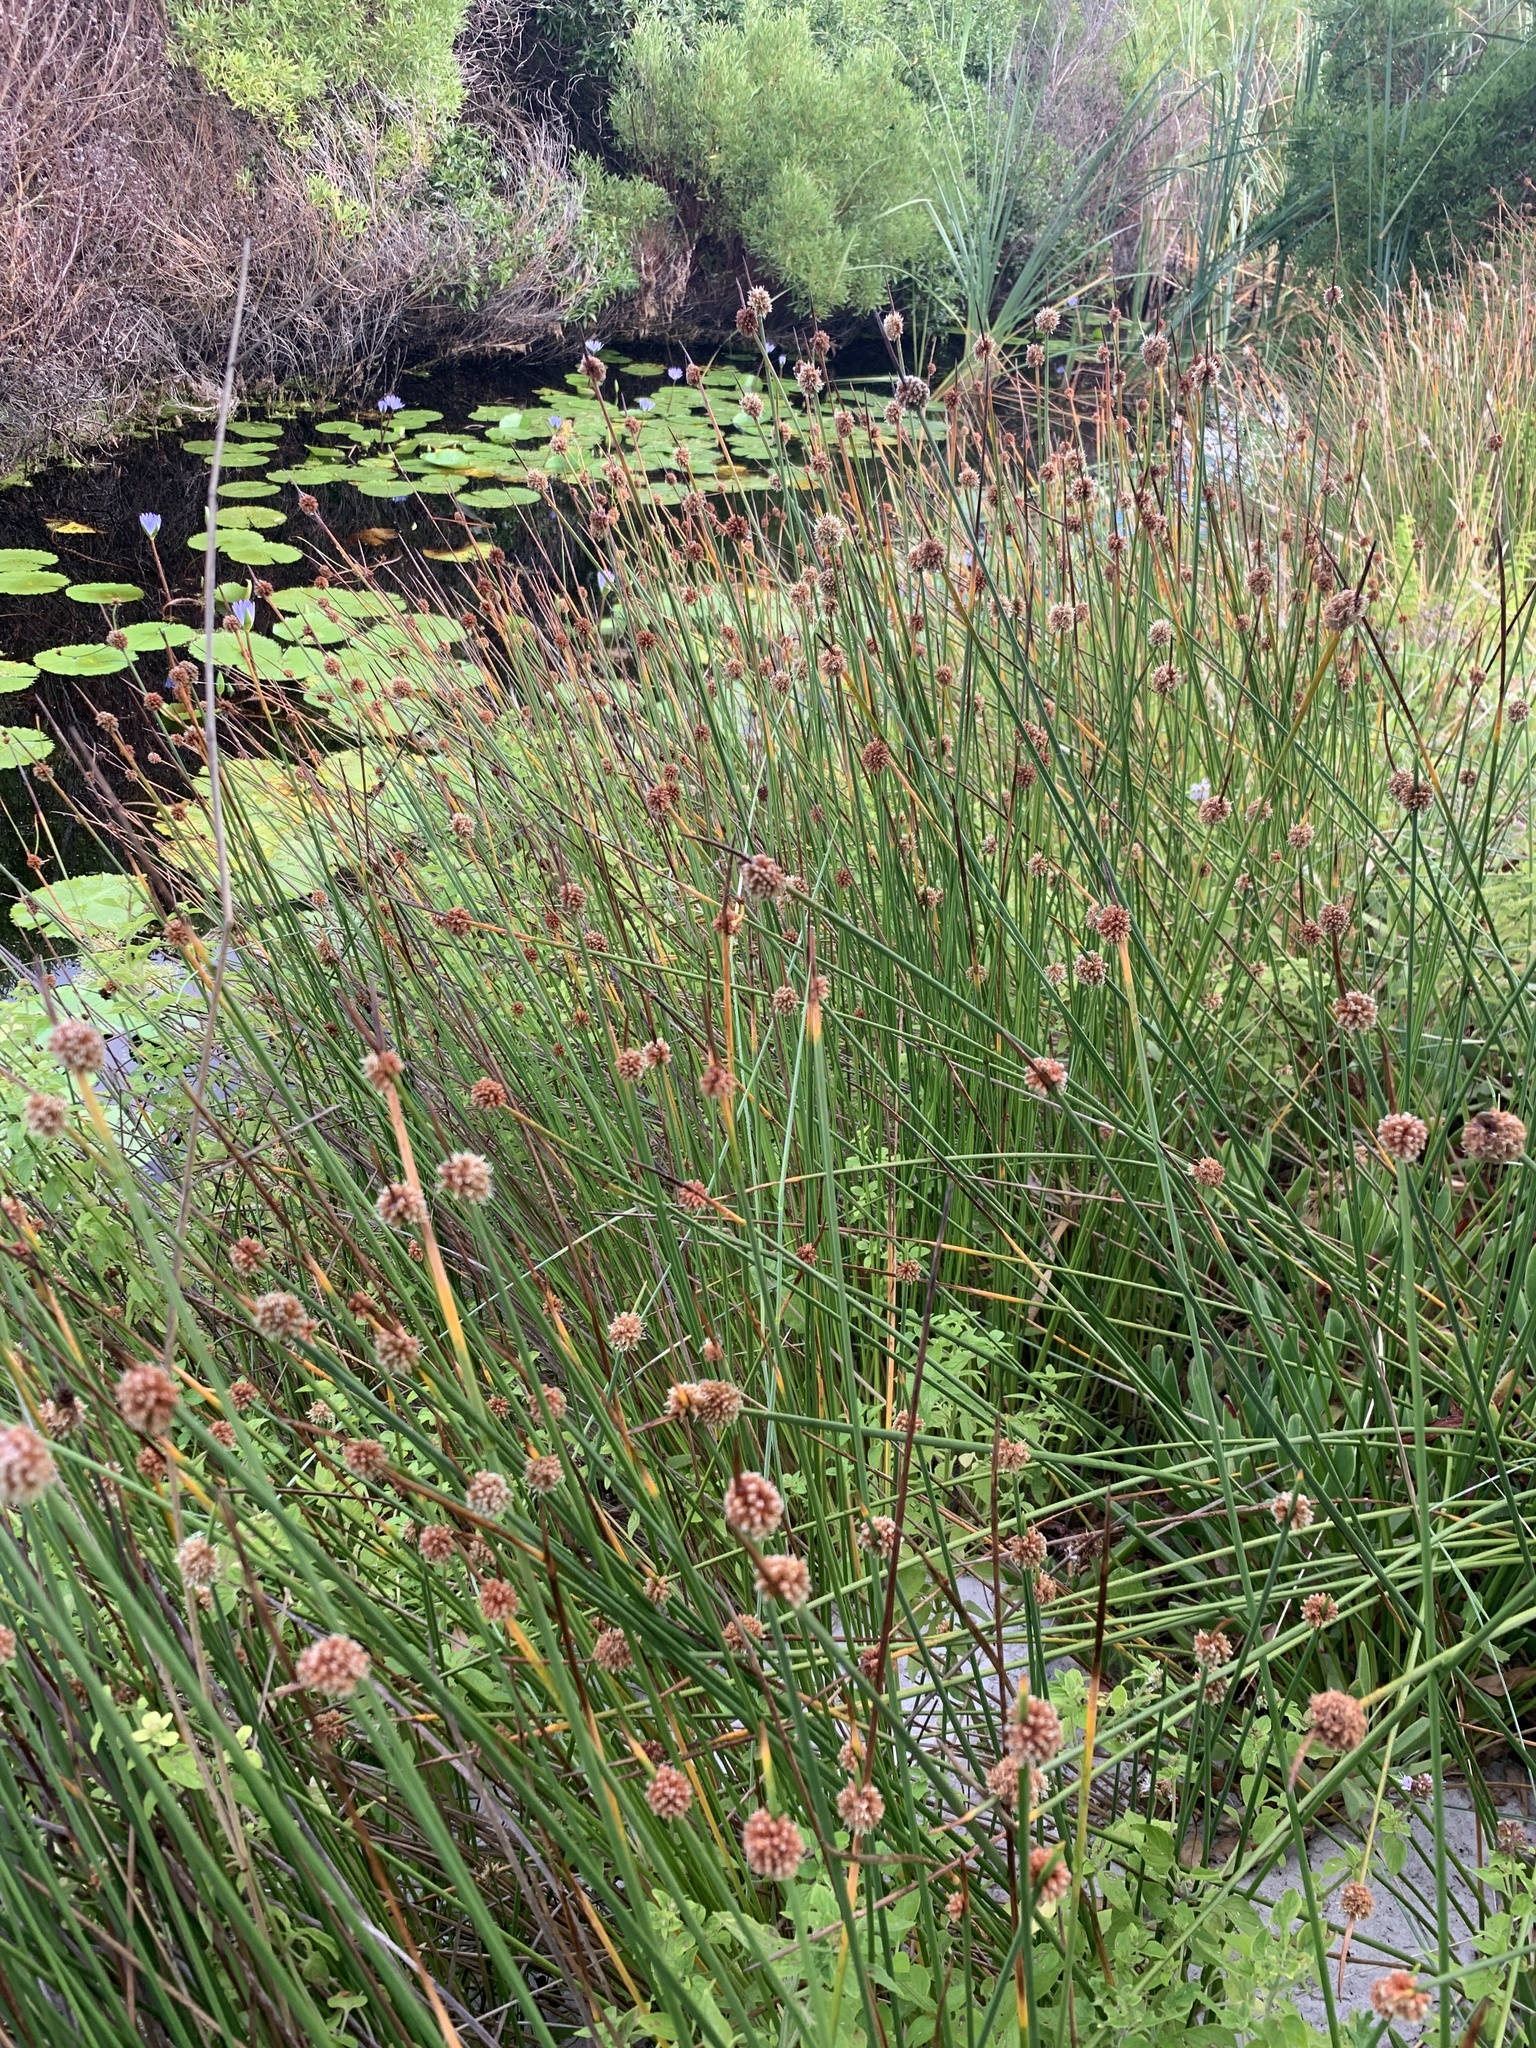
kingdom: Plantae
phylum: Tracheophyta
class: Liliopsida
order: Poales
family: Cyperaceae
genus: Ficinia
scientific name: Ficinia nodosa
